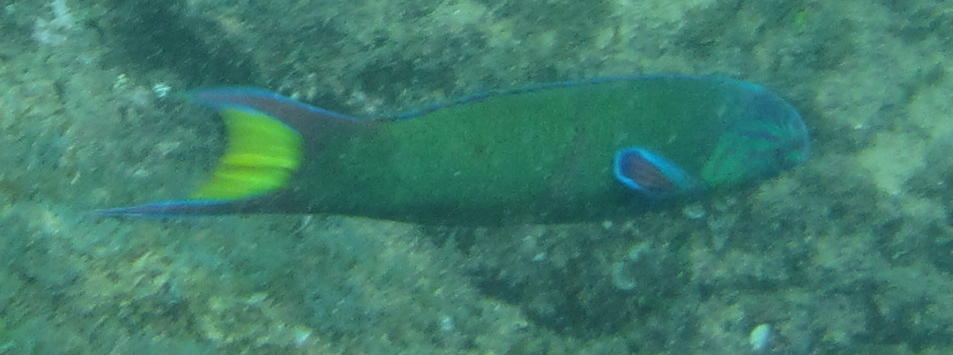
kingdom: Animalia
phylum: Chordata
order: Perciformes
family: Labridae
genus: Thalassoma
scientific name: Thalassoma lunare
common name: Blue wrasse
